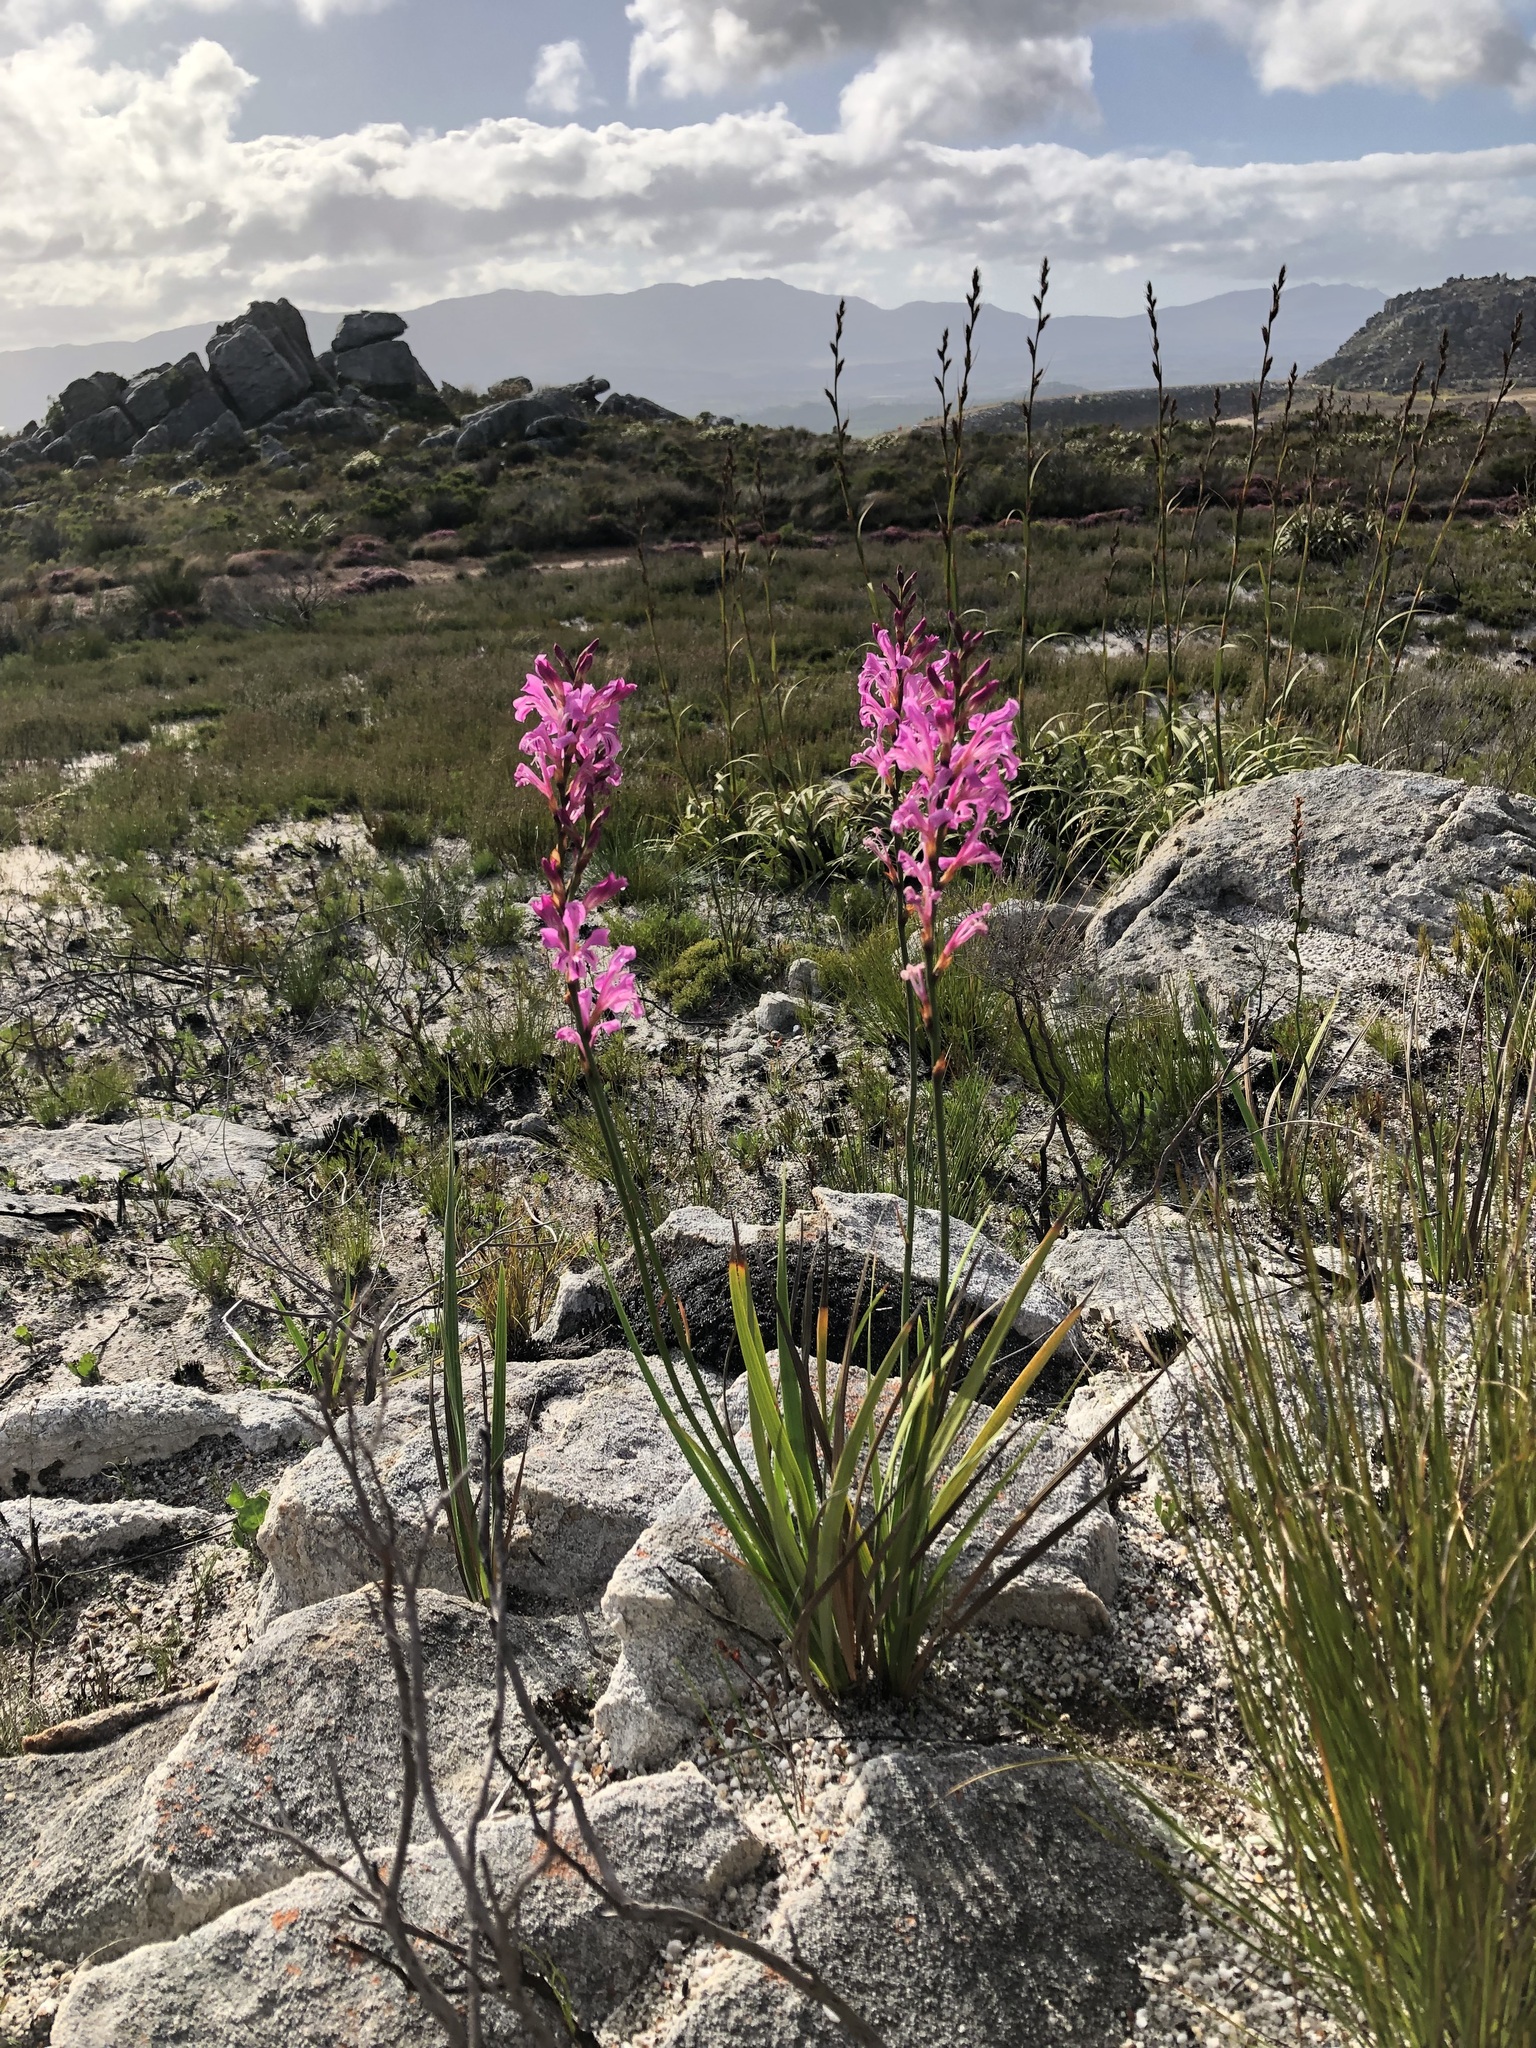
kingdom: Plantae
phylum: Tracheophyta
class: Liliopsida
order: Asparagales
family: Iridaceae
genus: Tritoniopsis
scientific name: Tritoniopsis lata
